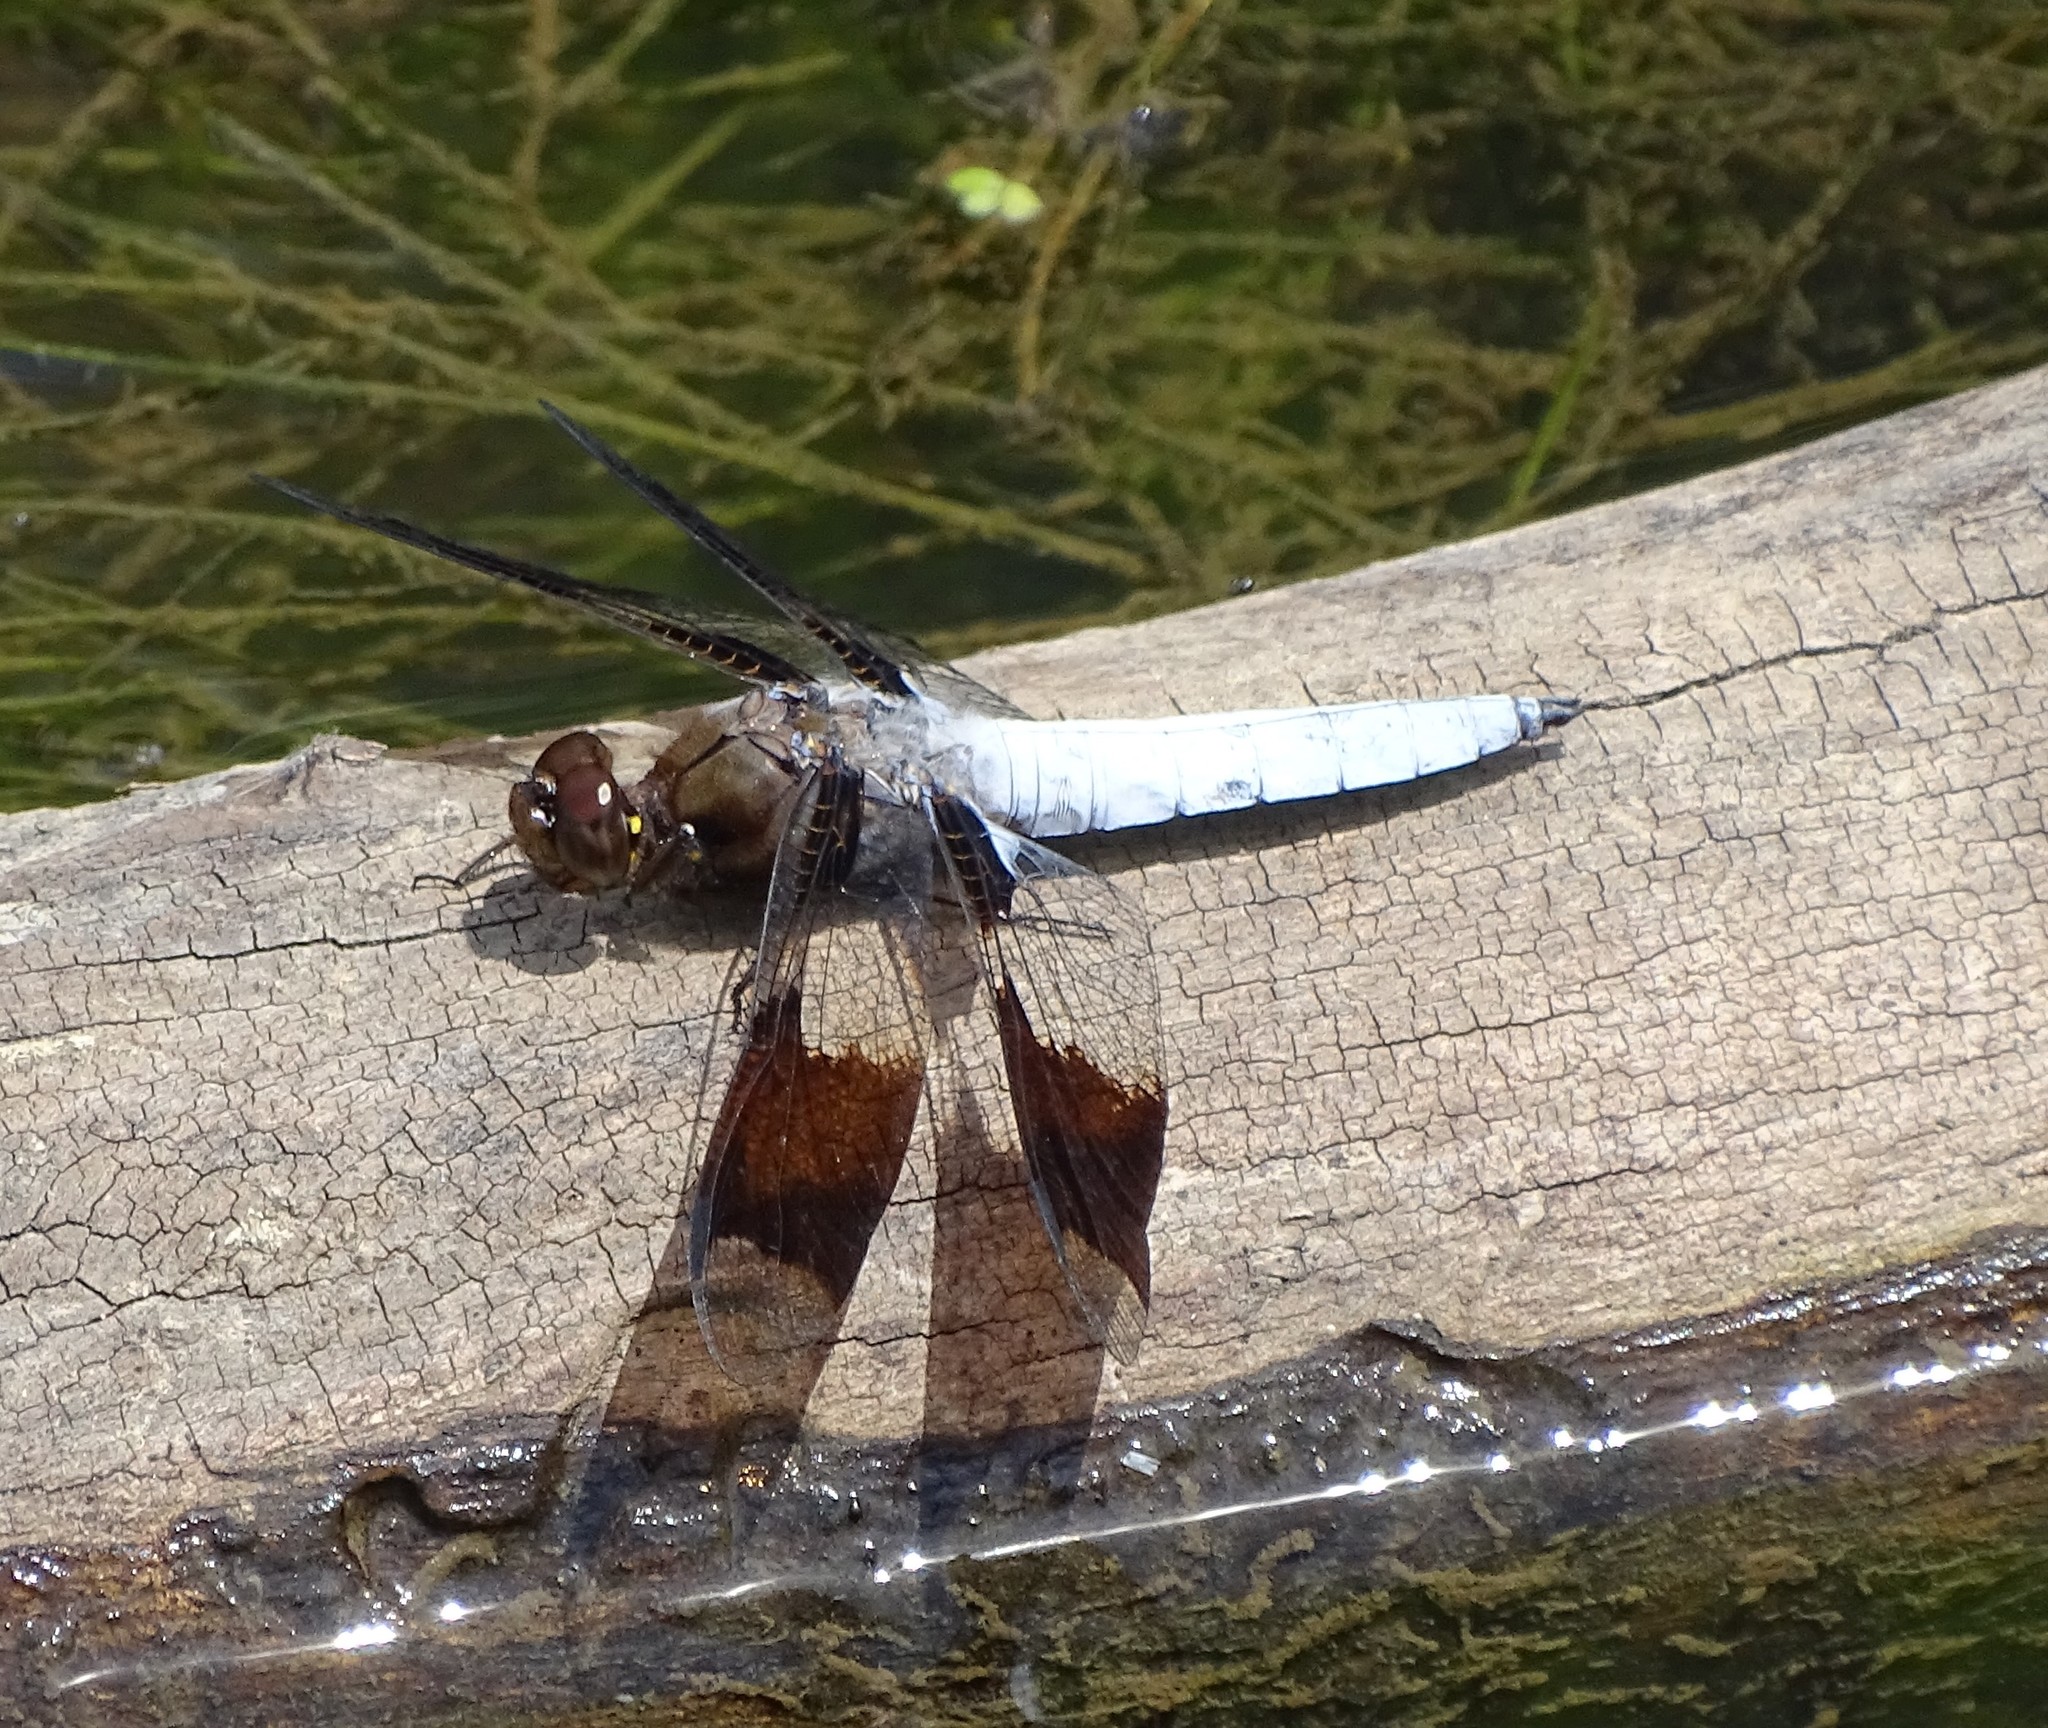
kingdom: Animalia
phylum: Arthropoda
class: Insecta
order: Odonata
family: Libellulidae
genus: Plathemis
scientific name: Plathemis lydia
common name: Common whitetail
